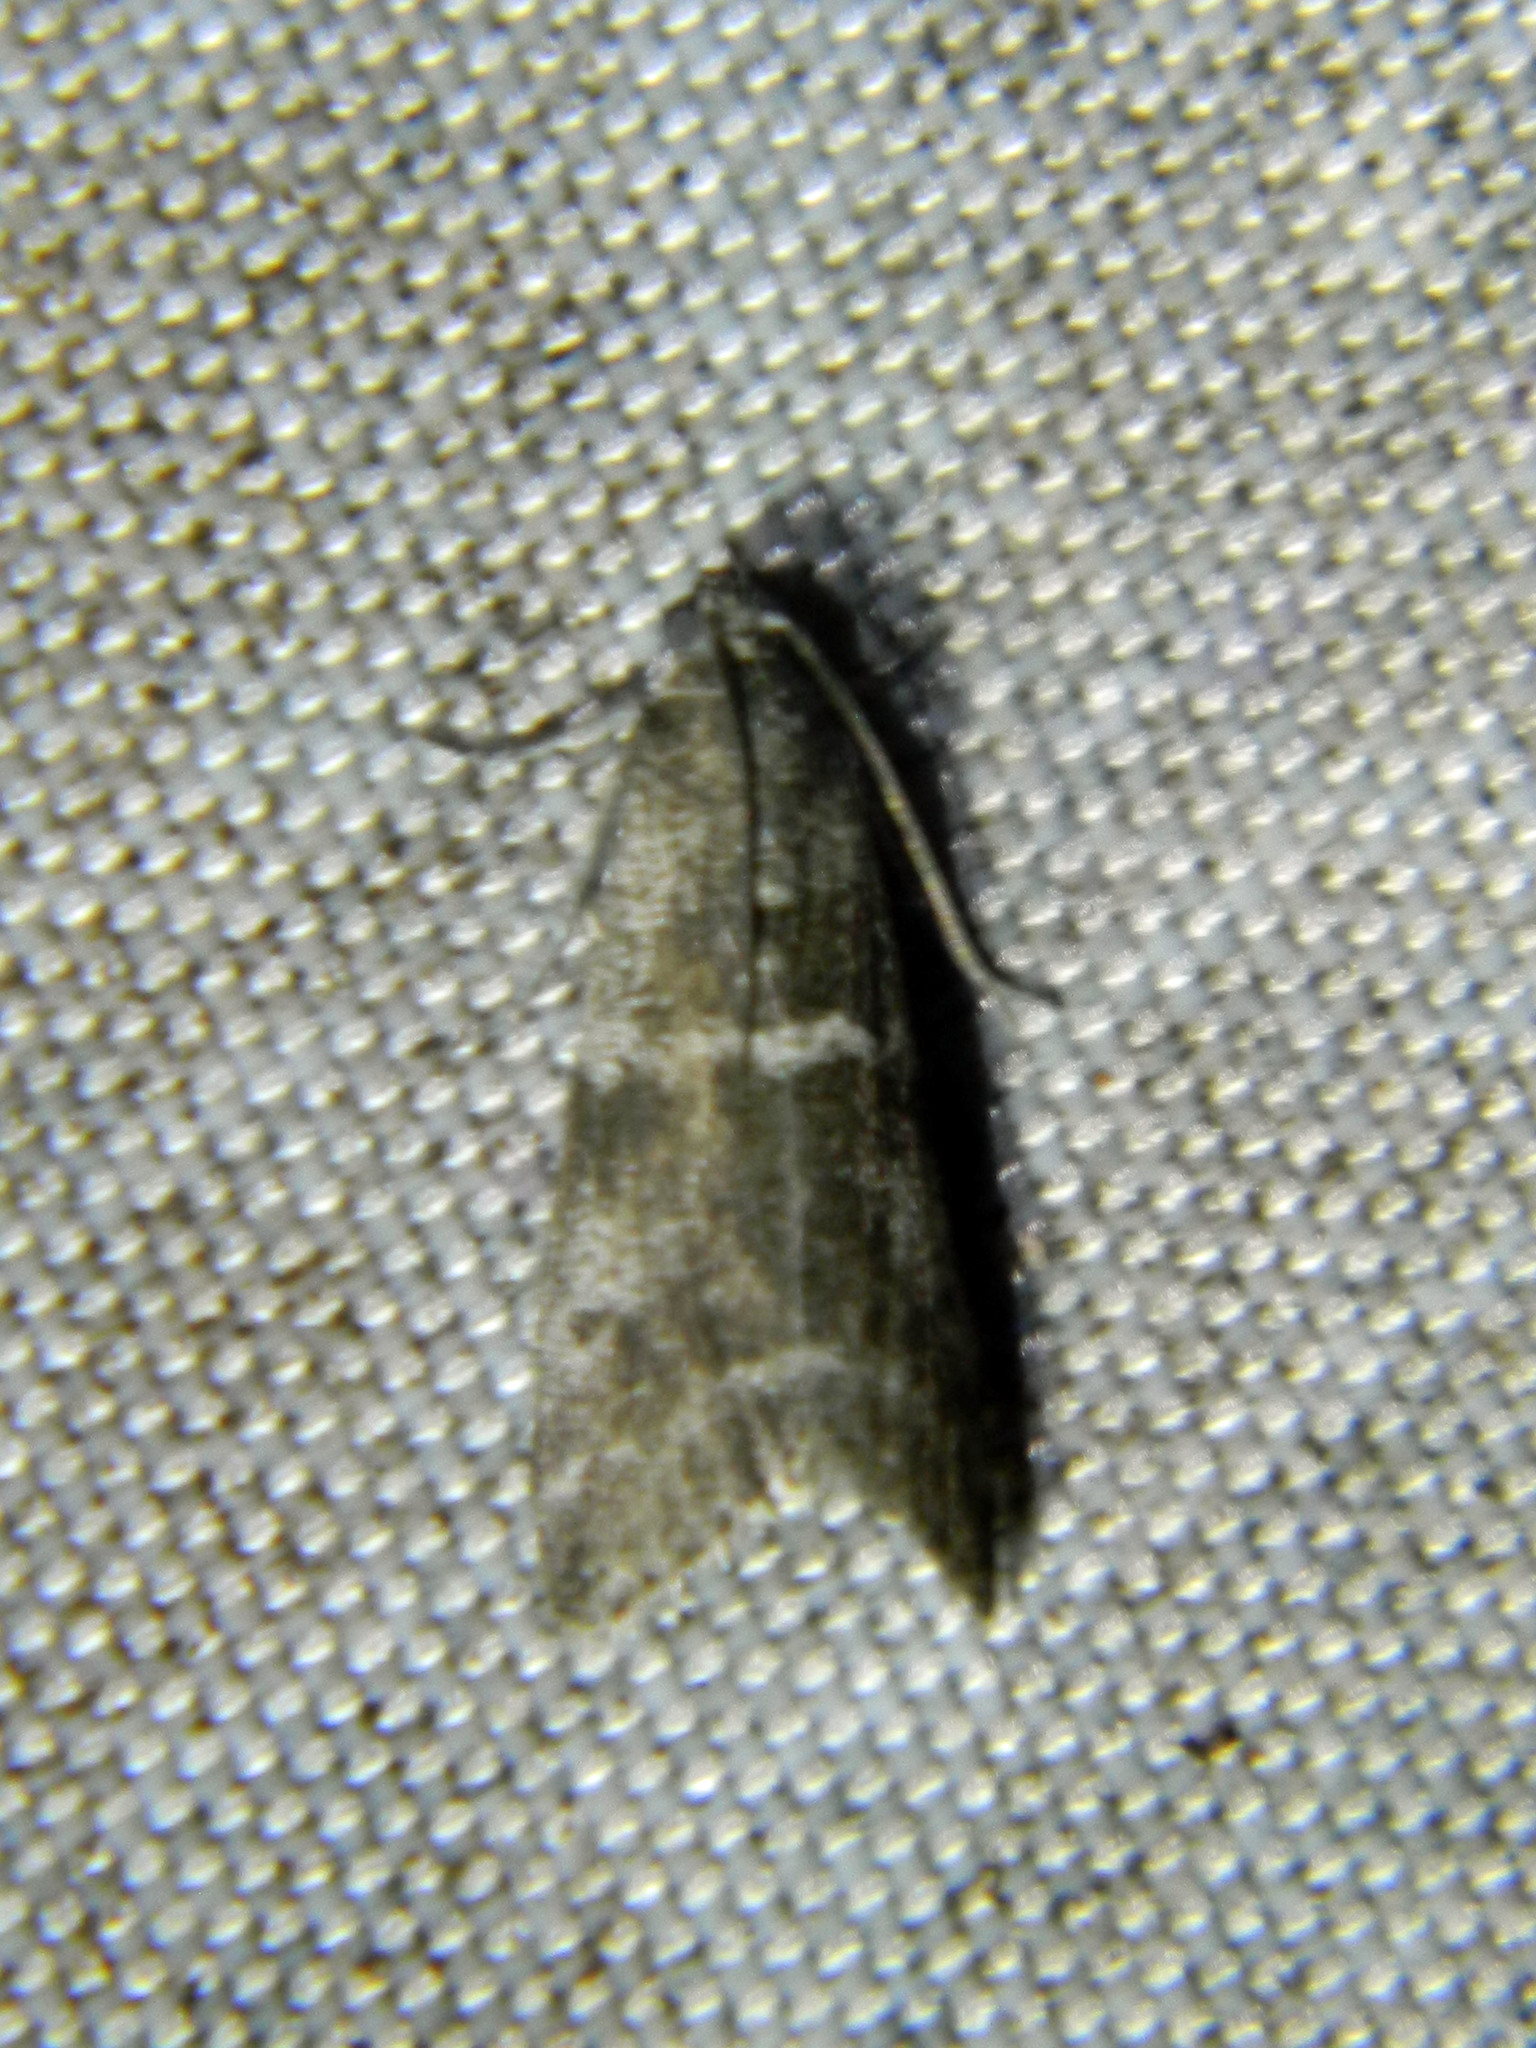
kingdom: Animalia
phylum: Arthropoda
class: Insecta
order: Lepidoptera
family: Pyralidae
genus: Apomyelois
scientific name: Apomyelois bistriatella
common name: Heath knot-horn
